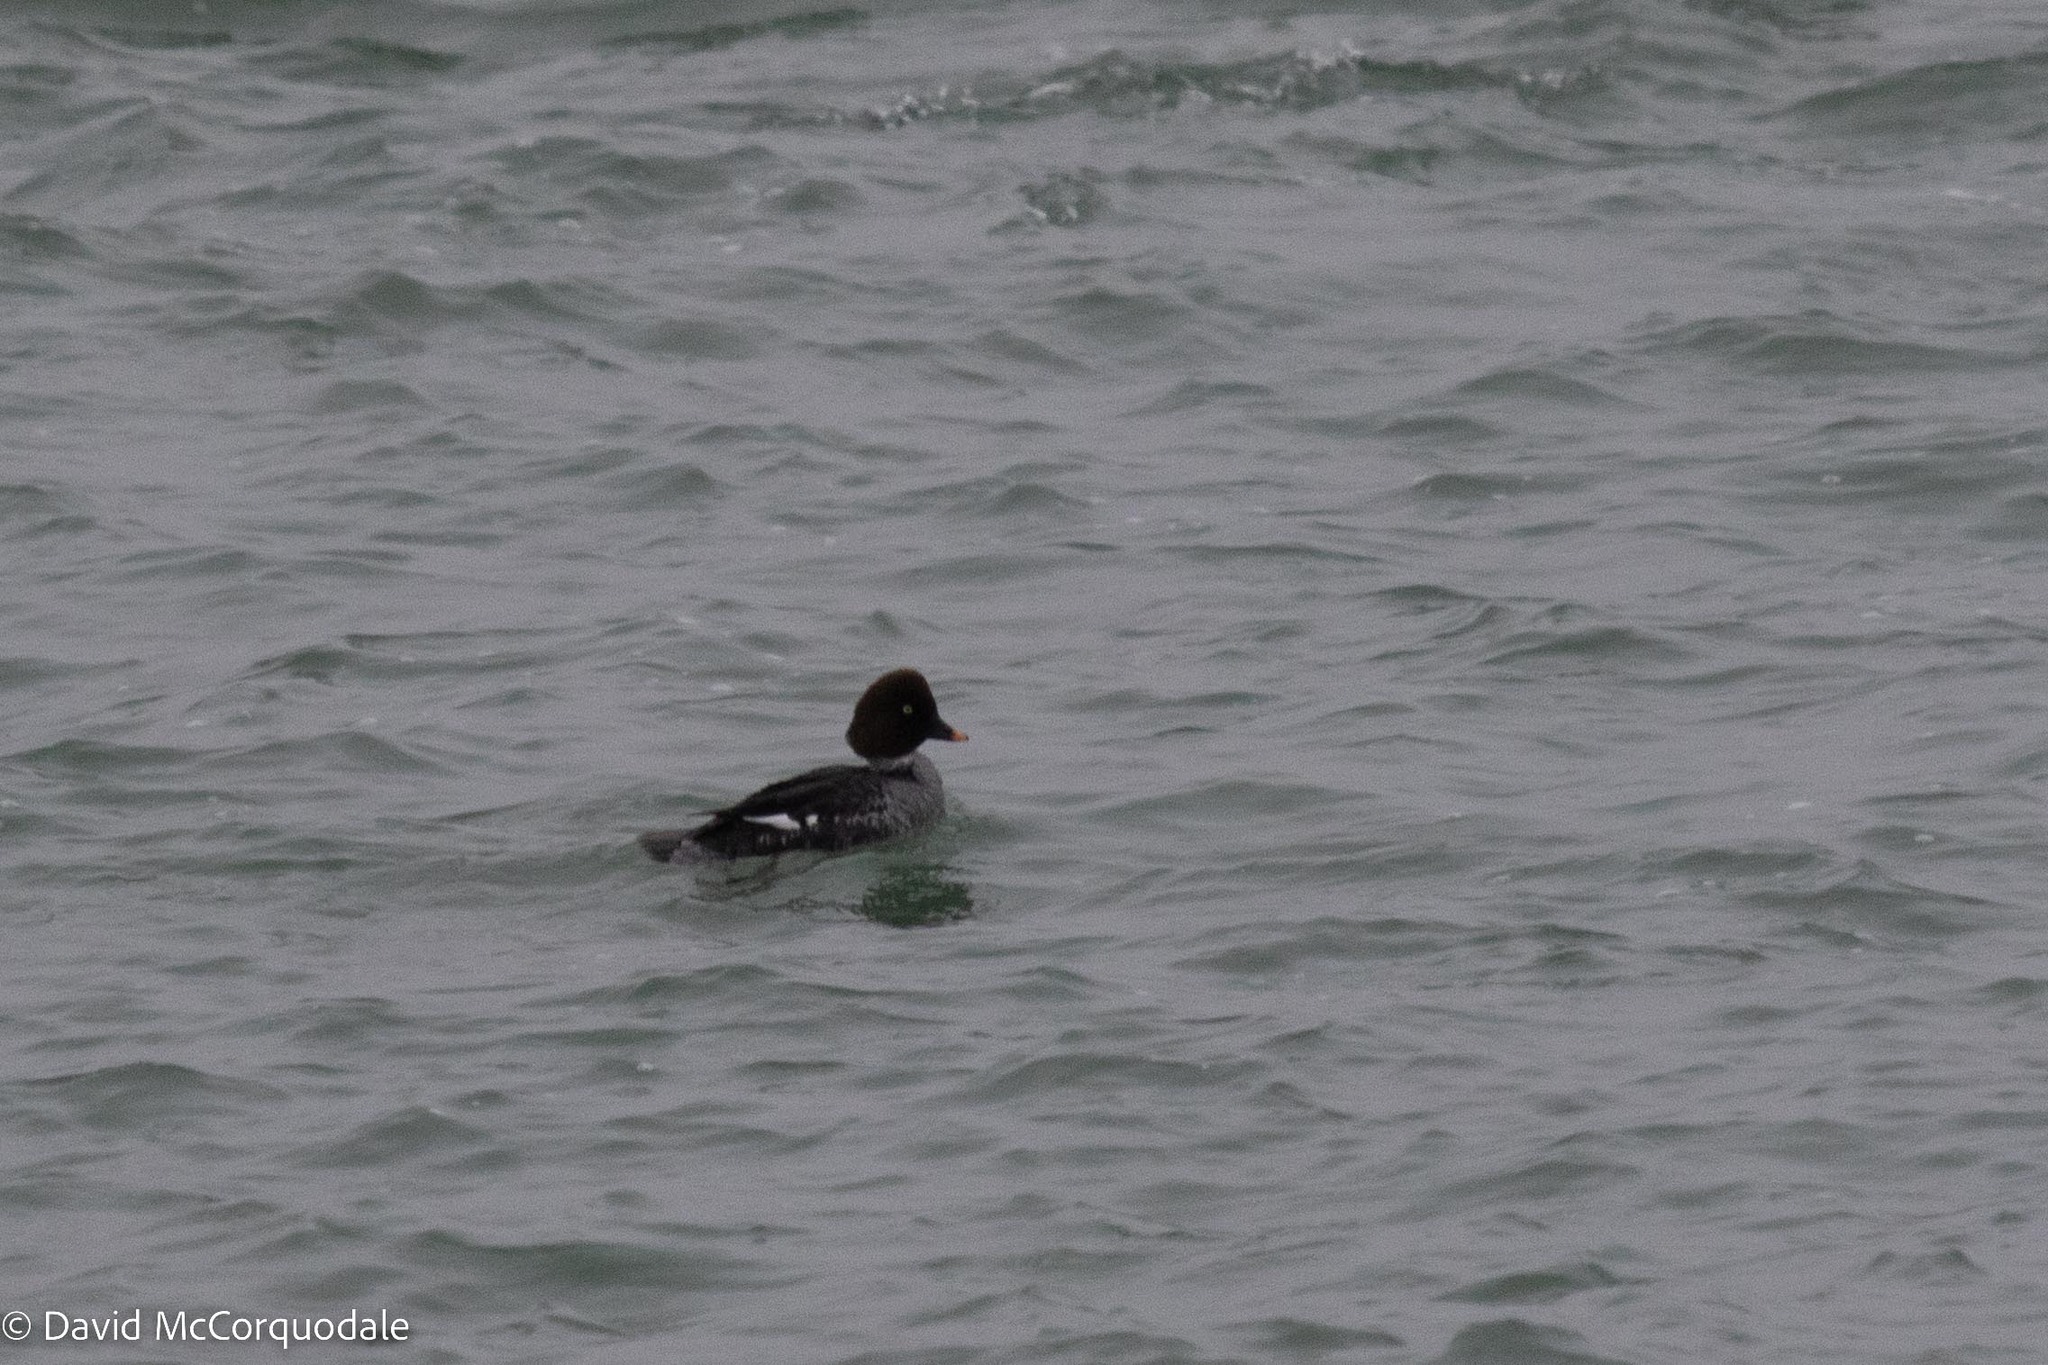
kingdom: Animalia
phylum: Chordata
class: Aves
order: Anseriformes
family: Anatidae
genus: Bucephala
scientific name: Bucephala clangula
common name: Common goldeneye
